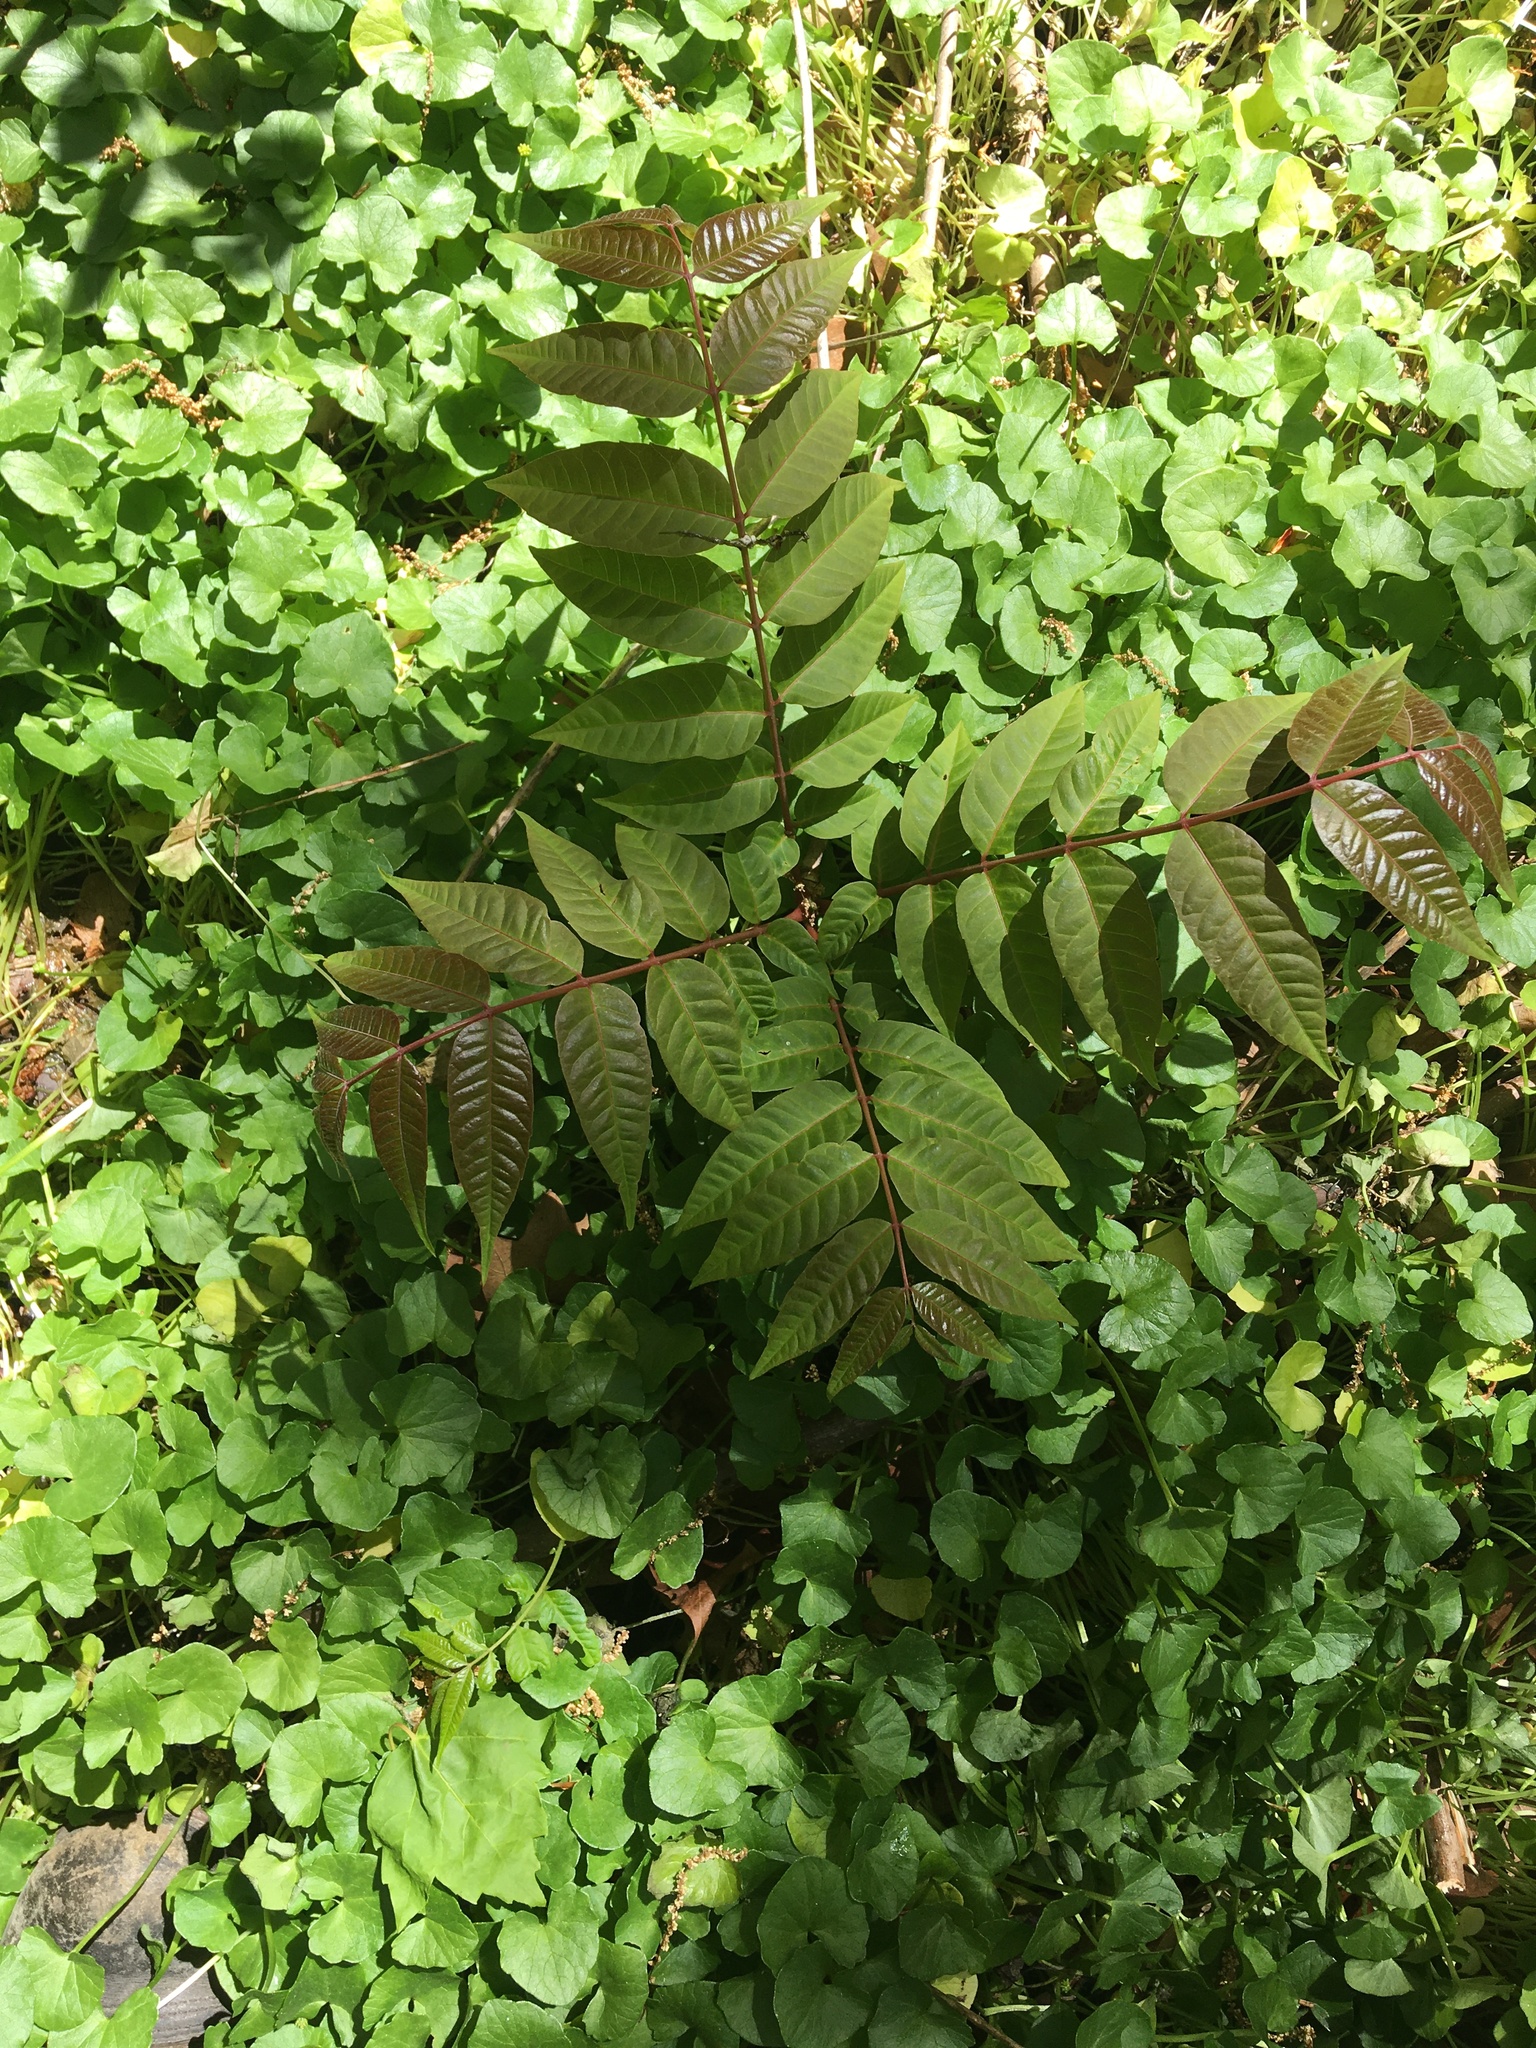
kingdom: Plantae
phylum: Tracheophyta
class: Magnoliopsida
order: Sapindales
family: Meliaceae
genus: Toona
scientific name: Toona sinensis
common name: Red toon
